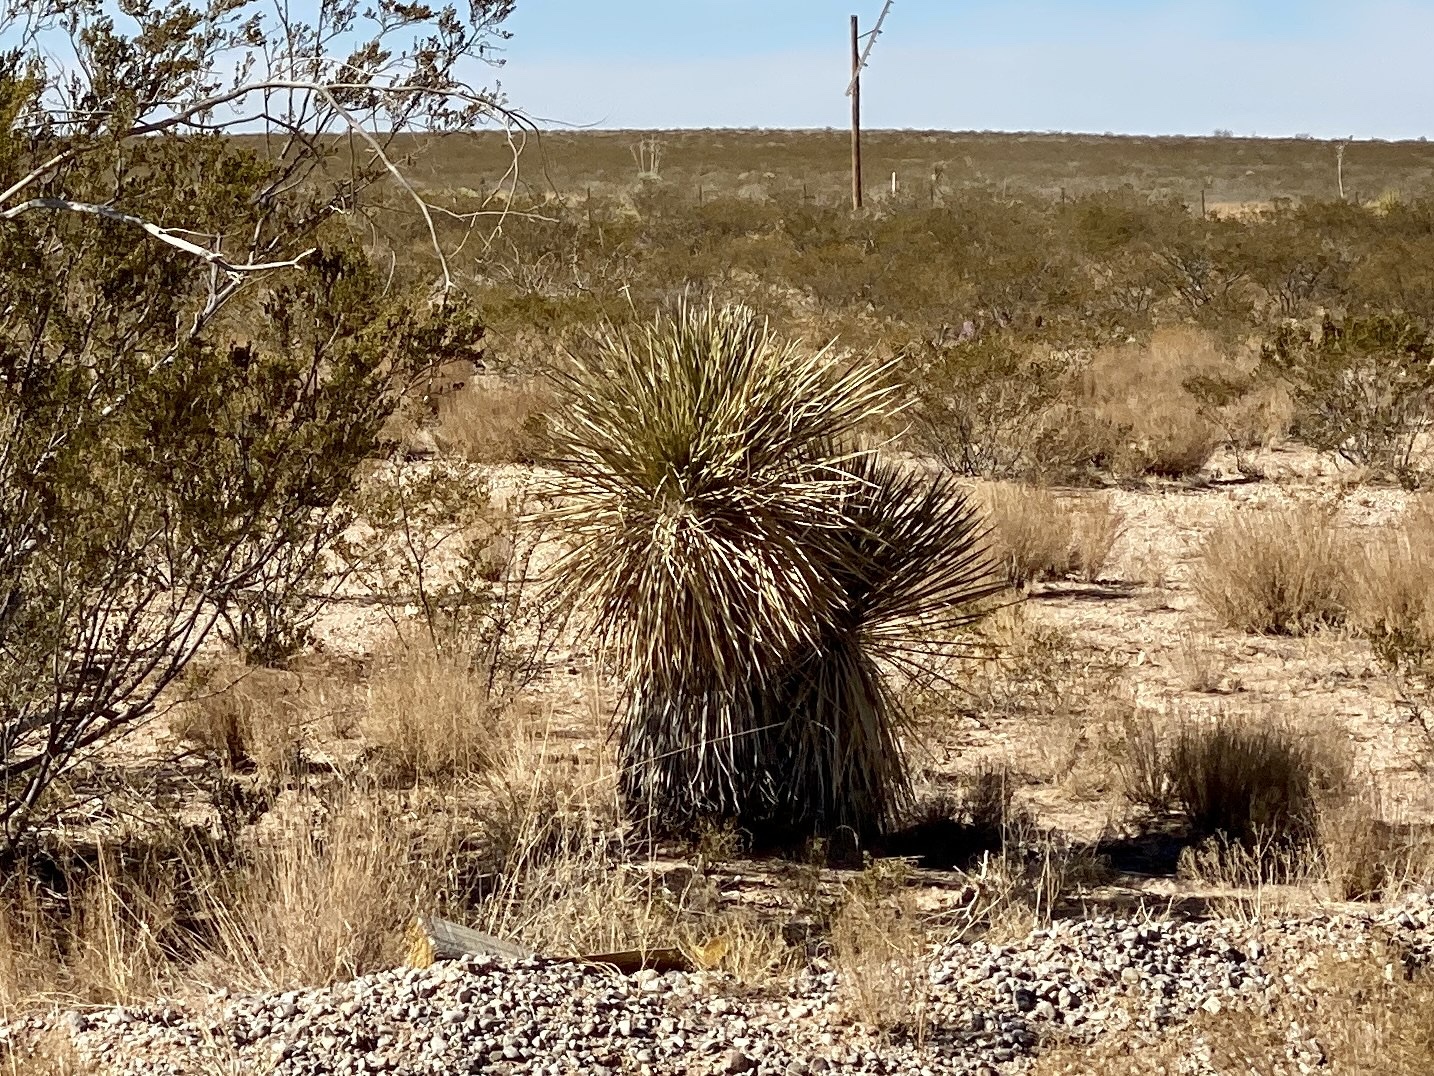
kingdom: Plantae
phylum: Tracheophyta
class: Liliopsida
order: Asparagales
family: Asparagaceae
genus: Yucca
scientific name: Yucca elata
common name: Palmella
